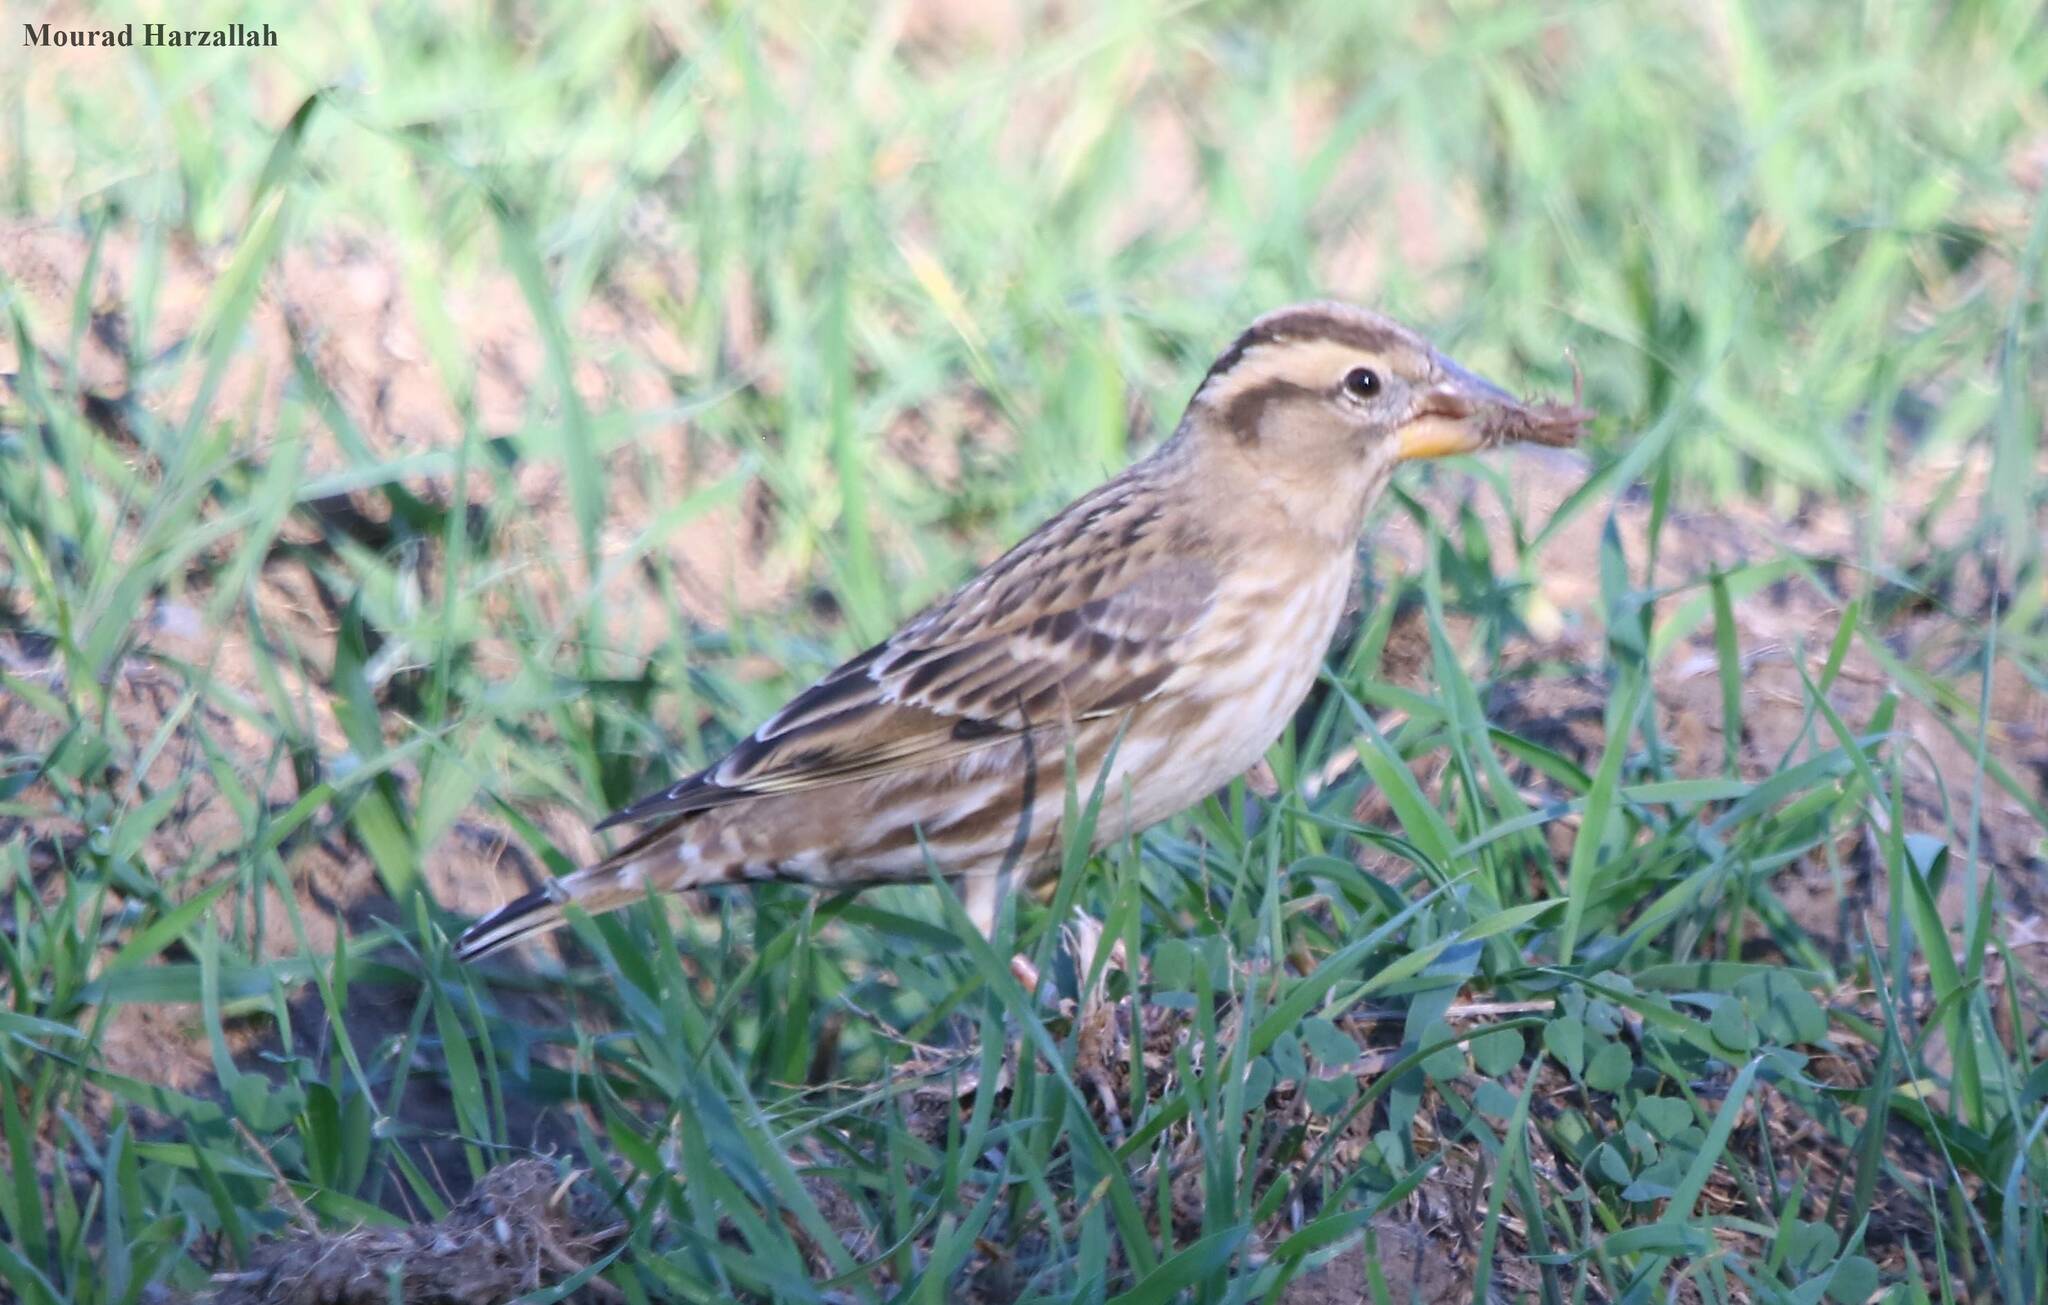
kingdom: Animalia
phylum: Chordata
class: Aves
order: Passeriformes
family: Passeridae
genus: Petronia
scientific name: Petronia petronia
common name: Rock sparrow
